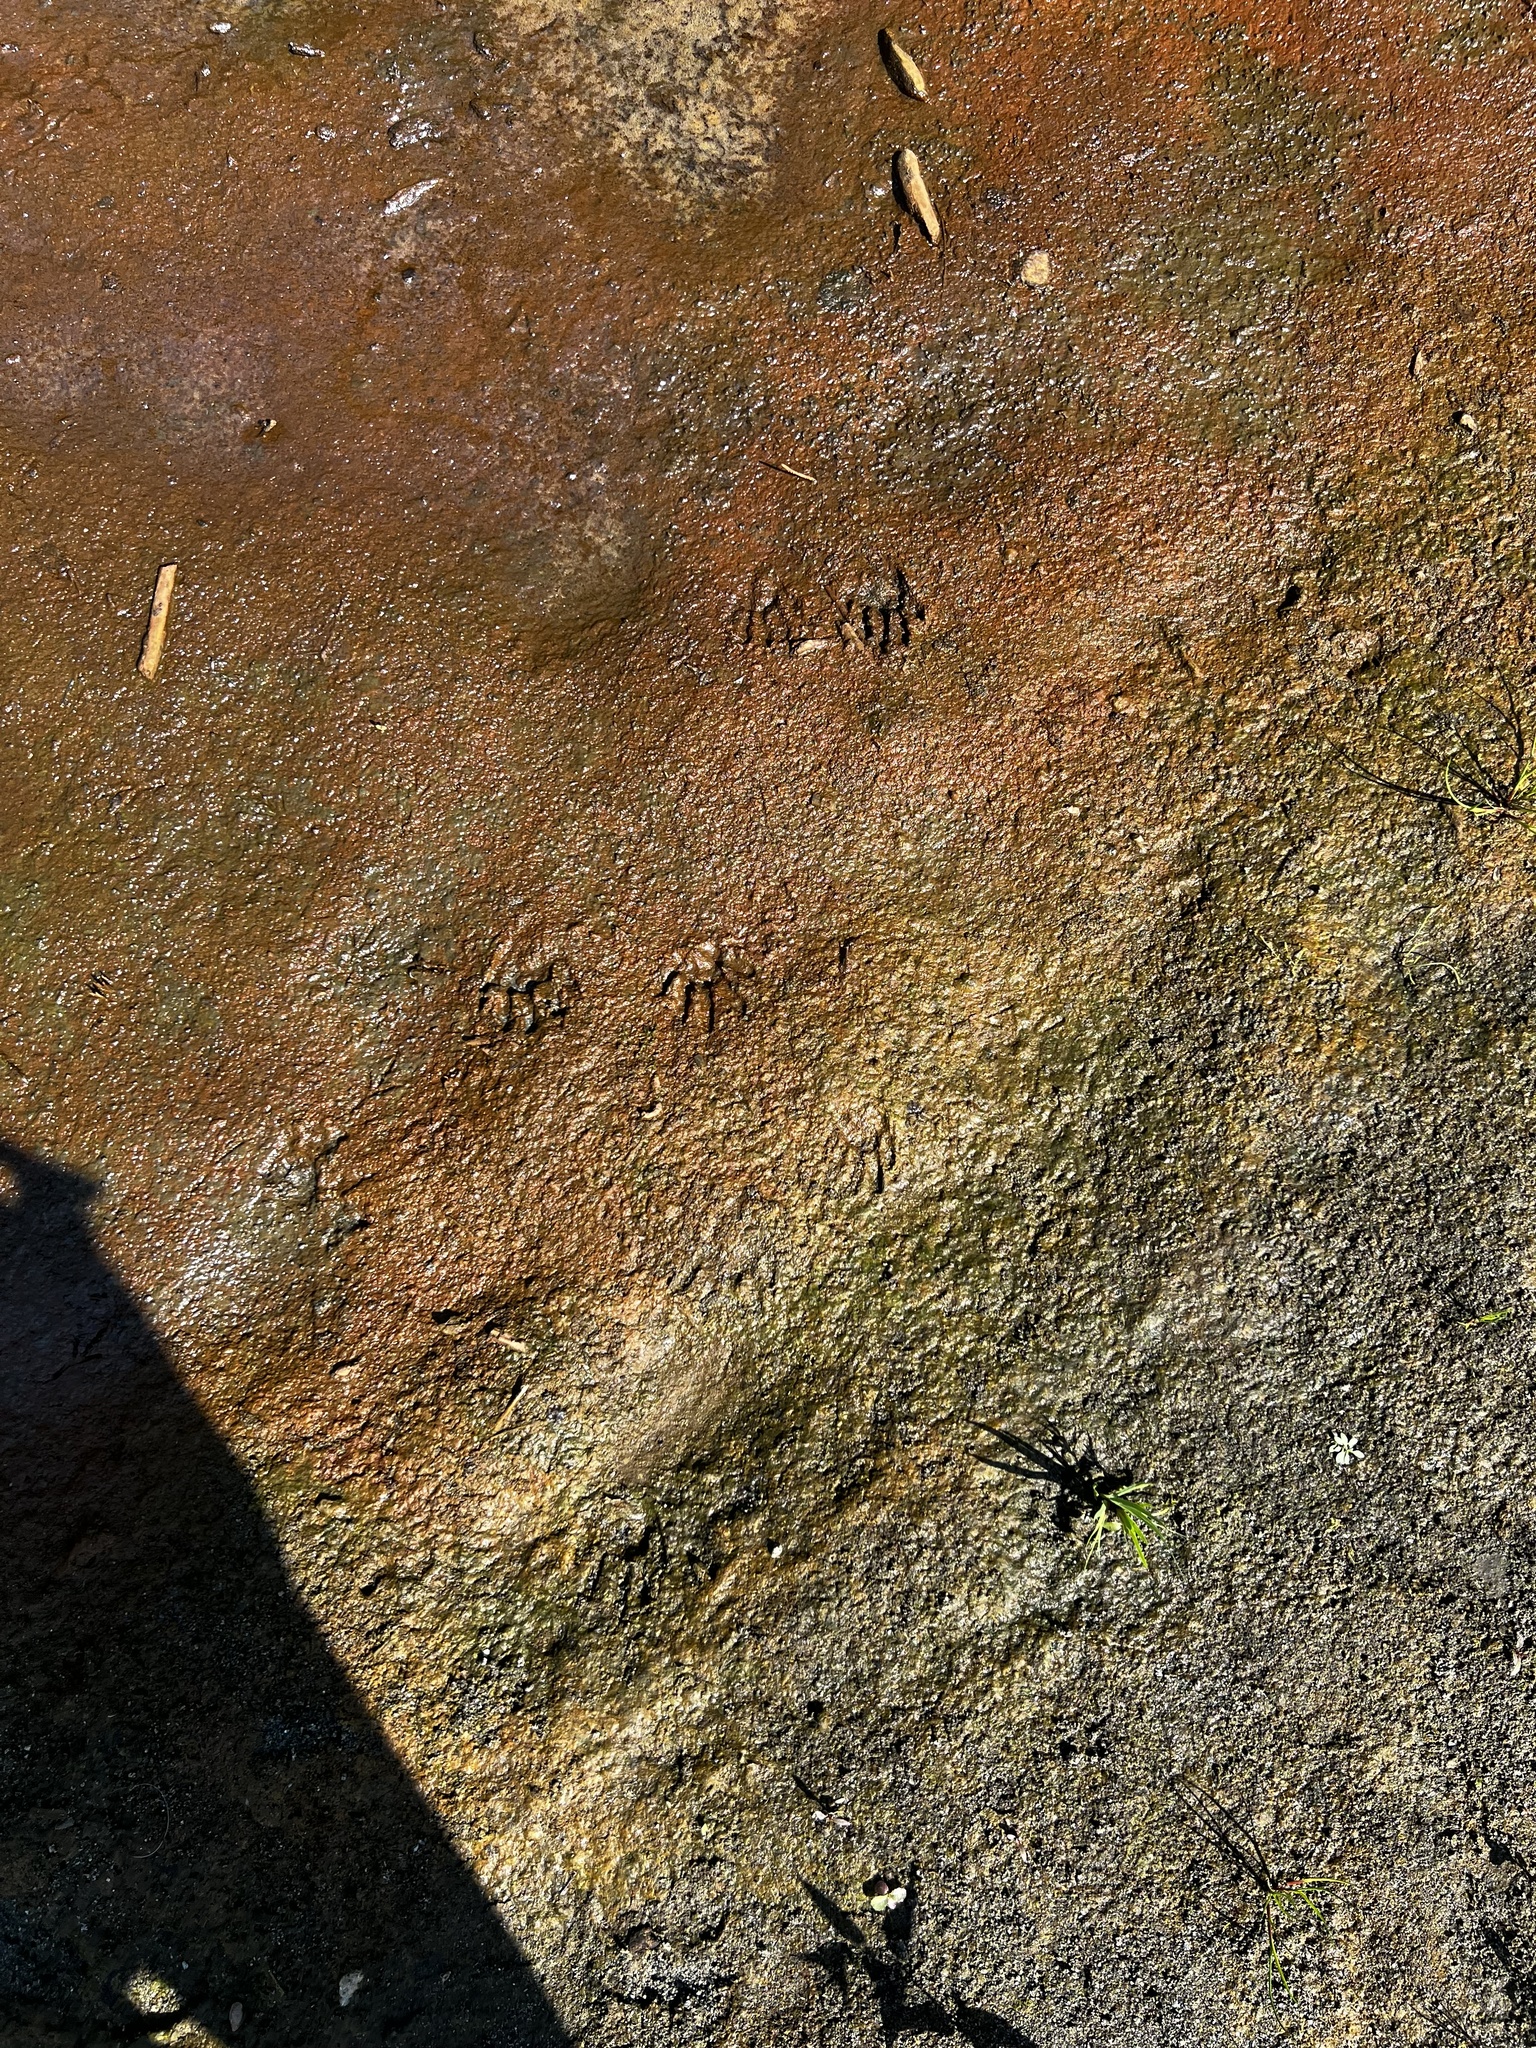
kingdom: Animalia
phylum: Chordata
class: Mammalia
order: Carnivora
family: Procyonidae
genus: Procyon
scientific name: Procyon lotor
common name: Raccoon
